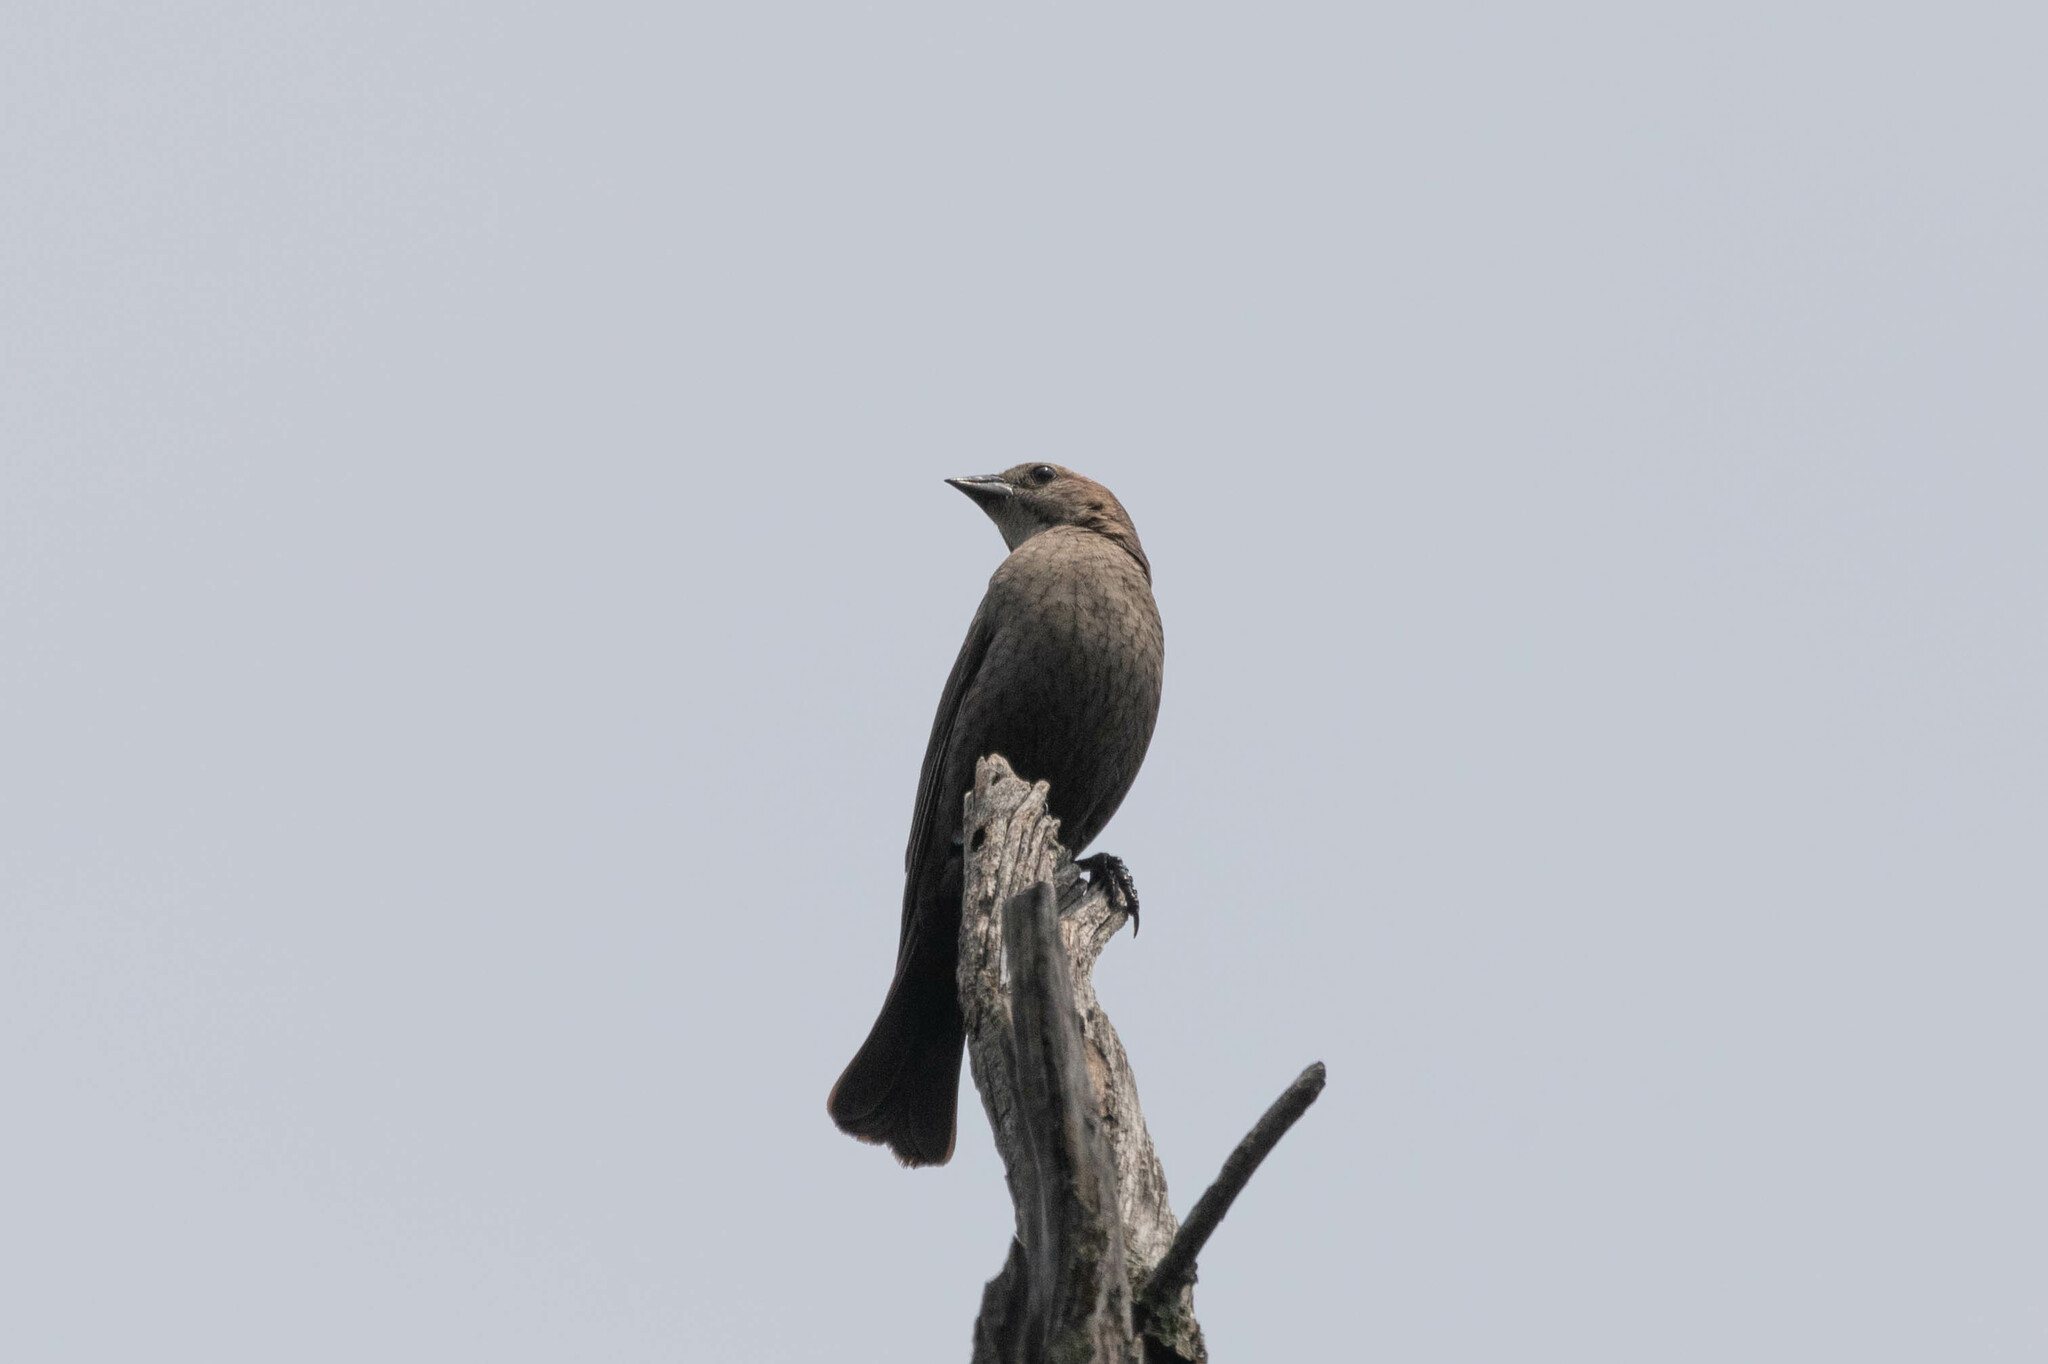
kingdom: Animalia
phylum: Chordata
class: Aves
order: Passeriformes
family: Icteridae
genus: Molothrus
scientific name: Molothrus ater
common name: Brown-headed cowbird
